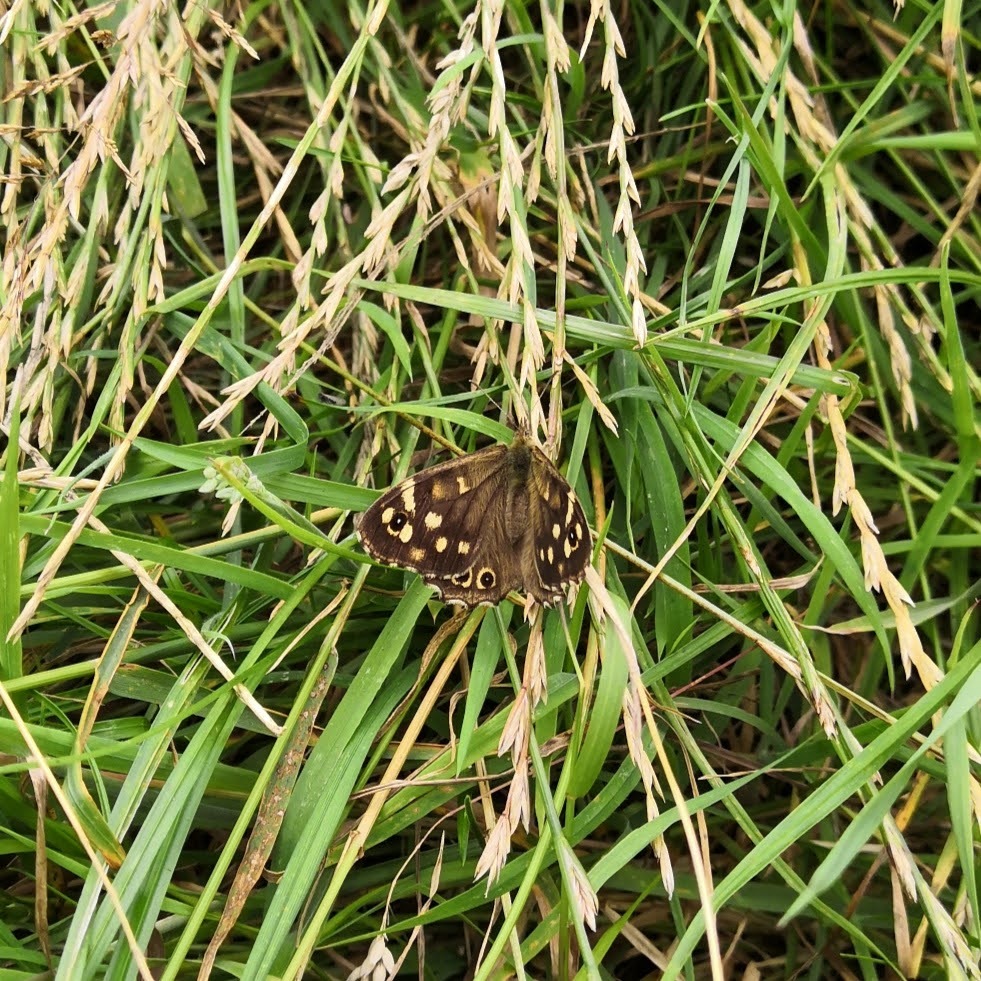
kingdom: Animalia
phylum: Arthropoda
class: Insecta
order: Lepidoptera
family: Nymphalidae
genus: Pararge
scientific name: Pararge aegeria
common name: Speckled wood
